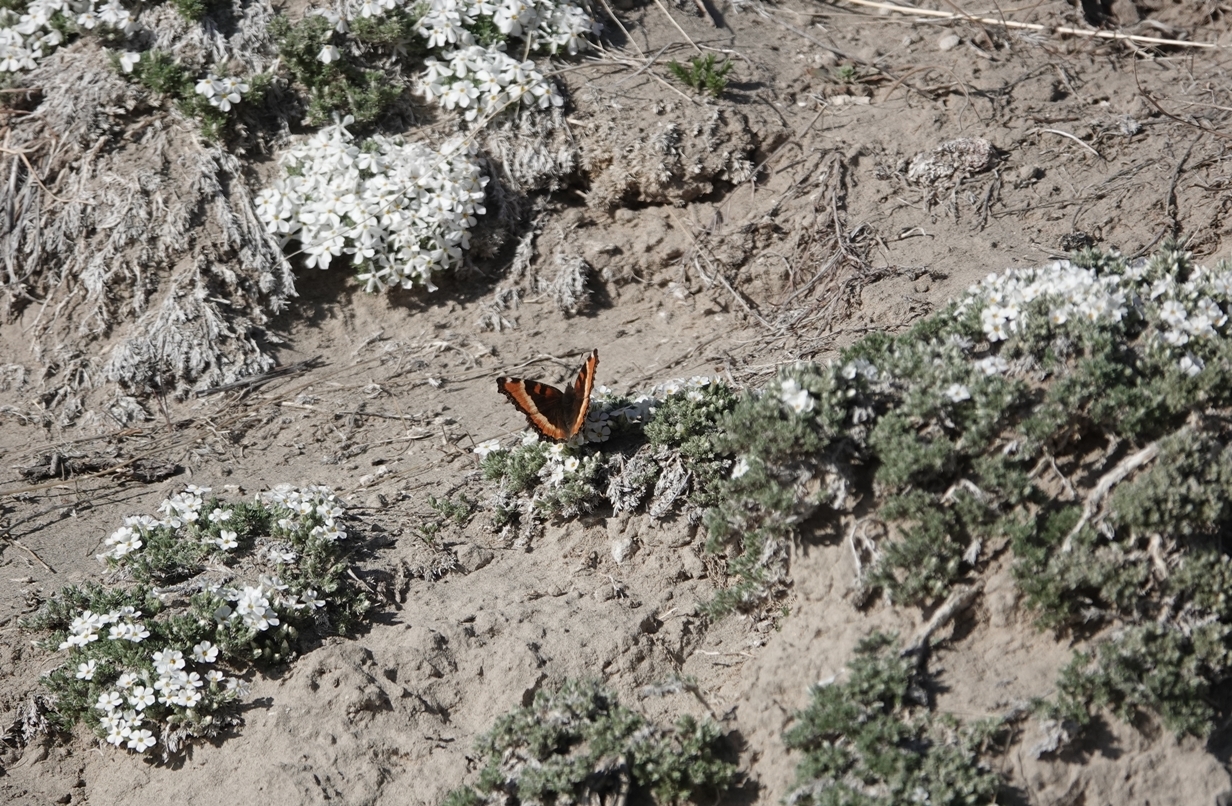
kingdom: Animalia
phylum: Arthropoda
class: Insecta
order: Lepidoptera
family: Nymphalidae
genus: Aglais
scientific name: Aglais milberti
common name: Milbert's tortoiseshell
